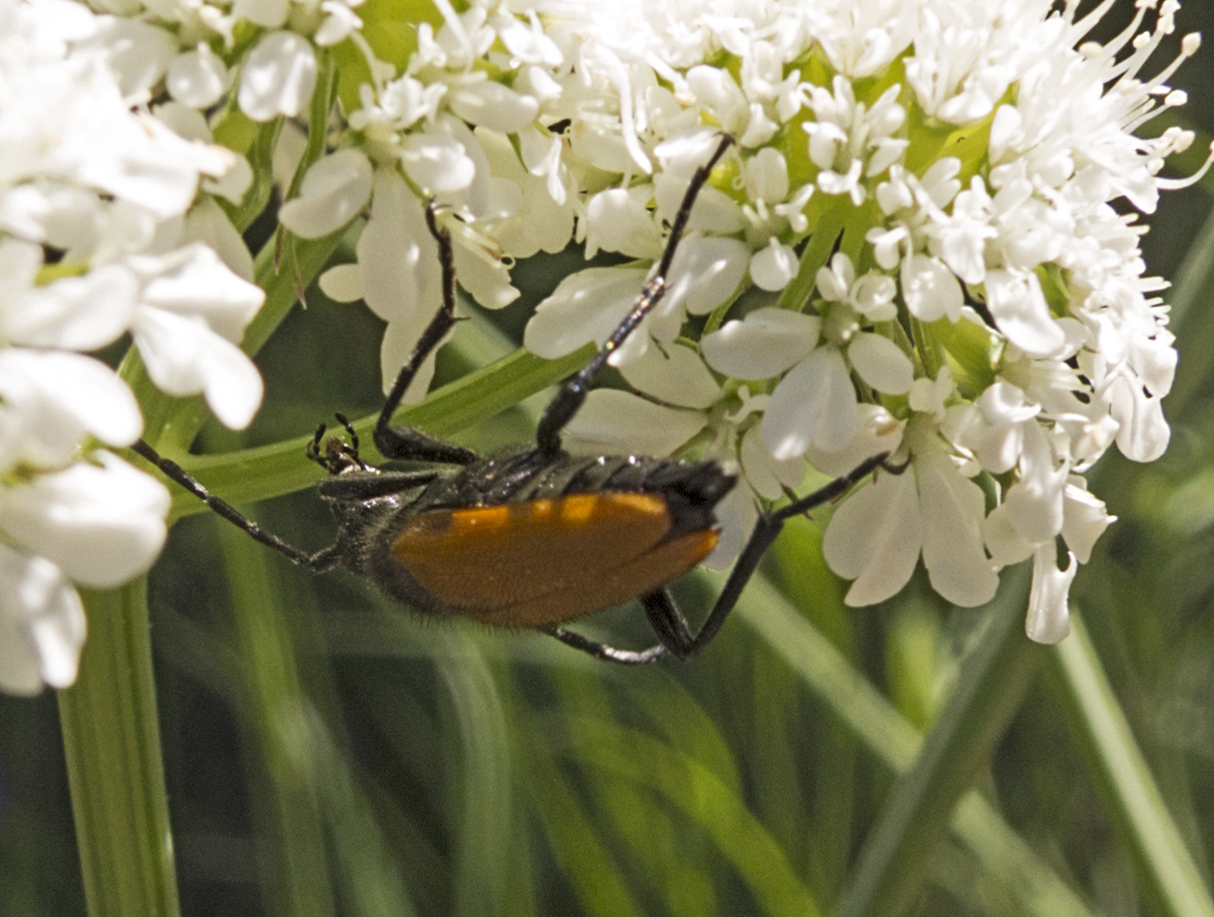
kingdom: Animalia
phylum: Arthropoda
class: Insecta
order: Coleoptera
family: Cerambycidae
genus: Paracorymbia
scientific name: Paracorymbia pallens
